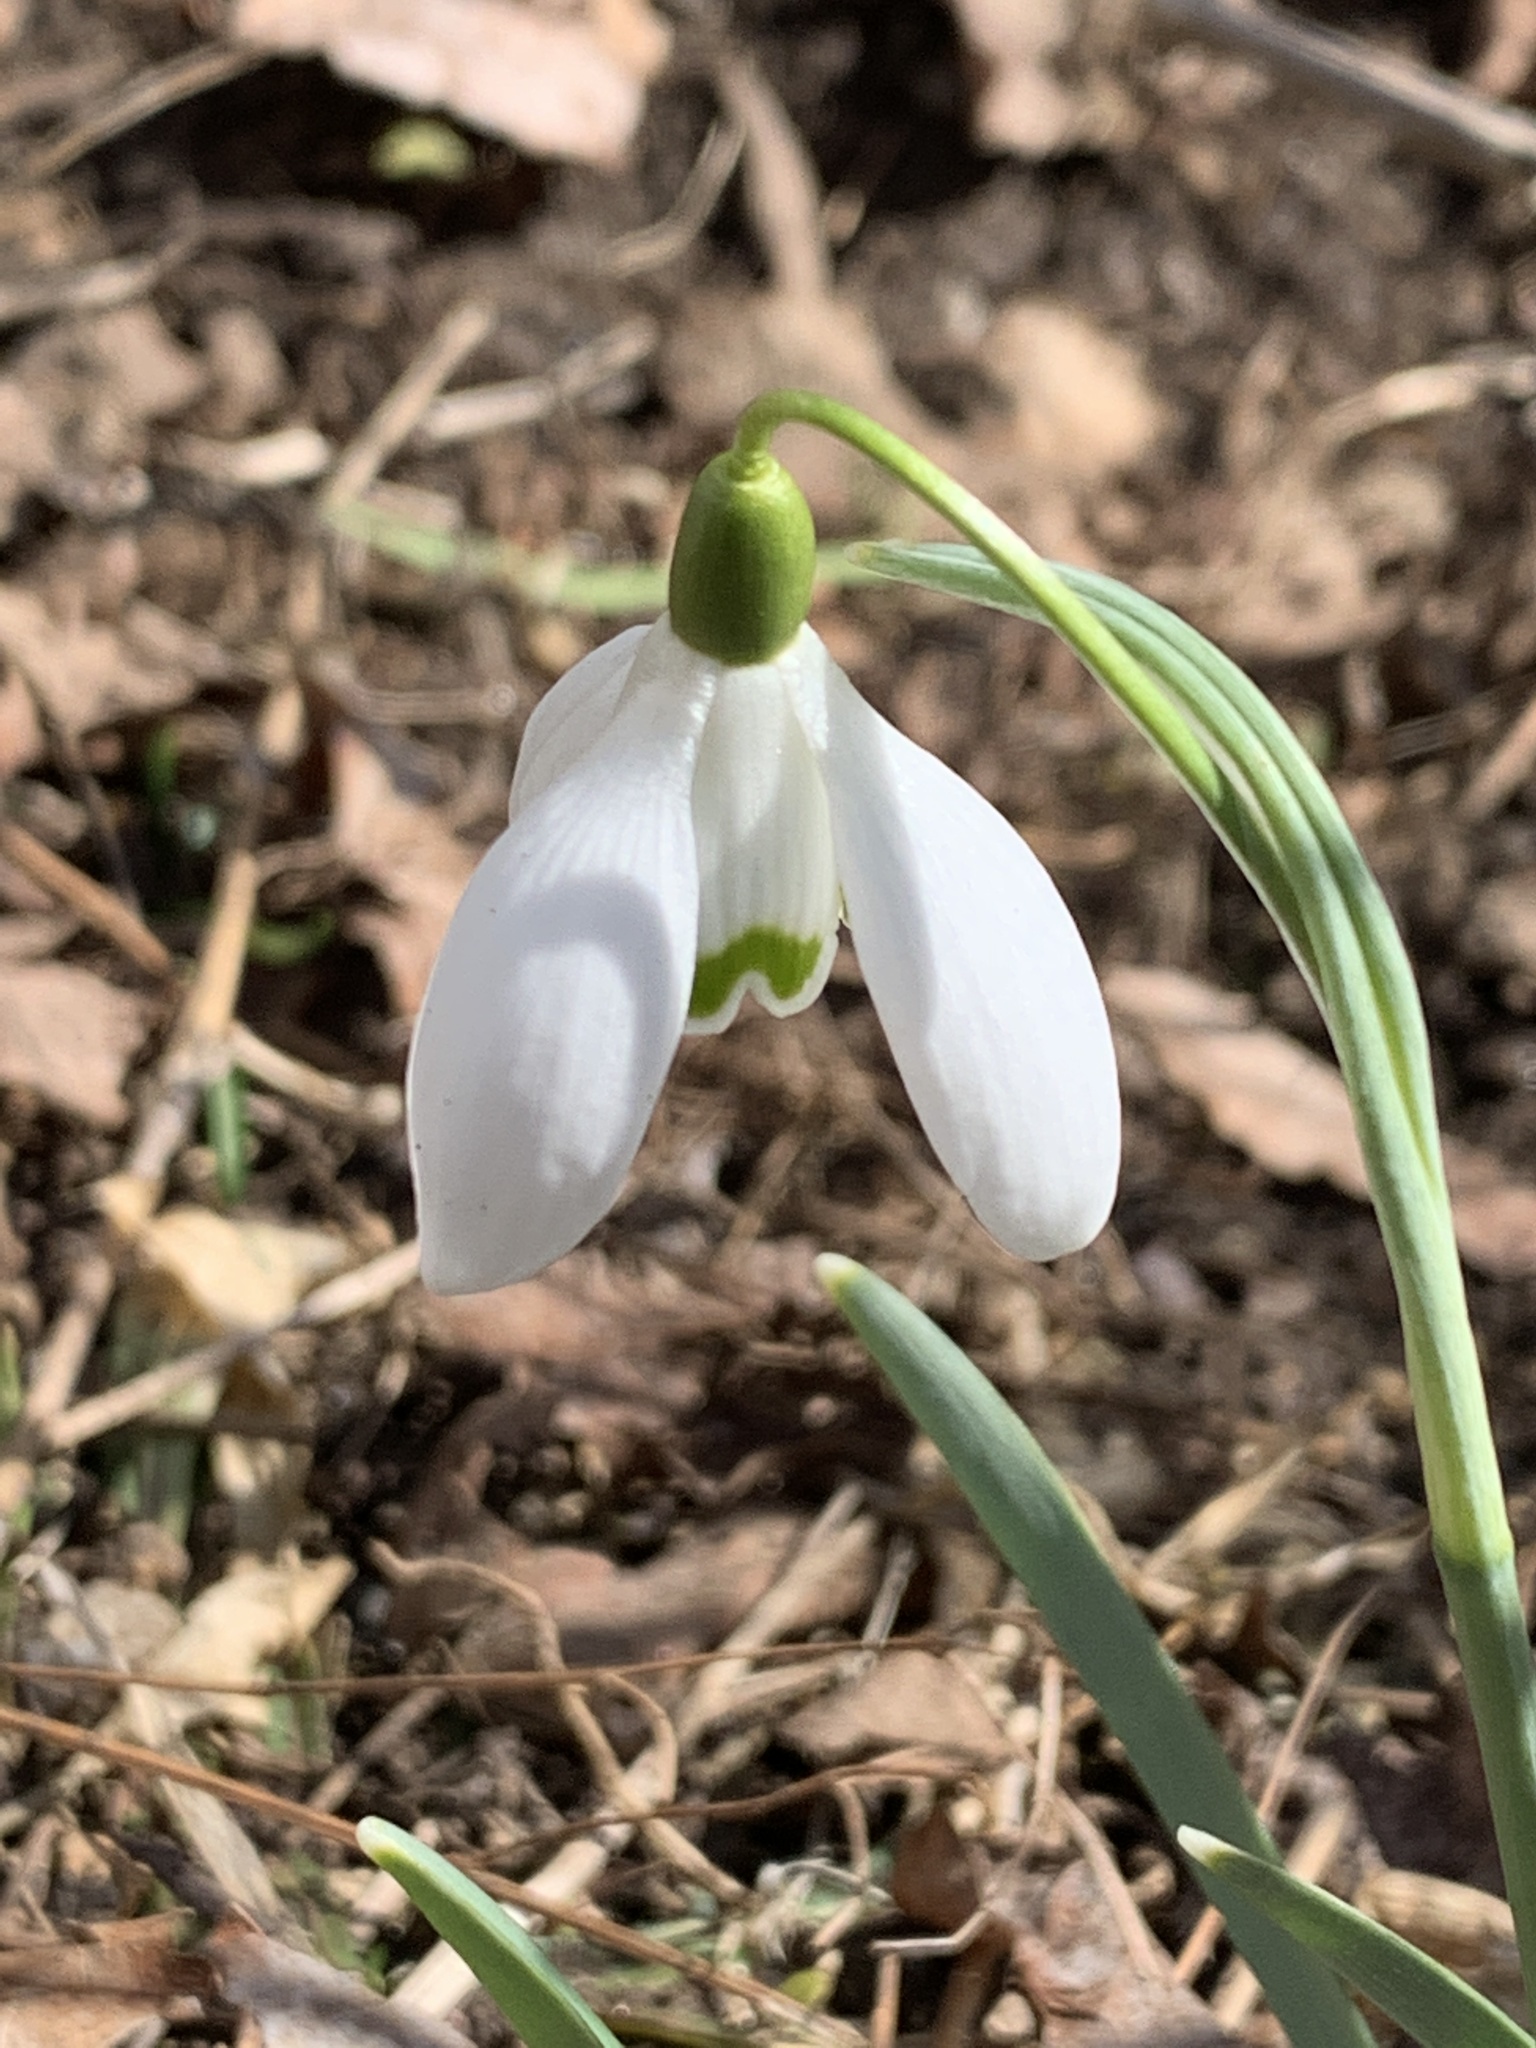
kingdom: Plantae
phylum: Tracheophyta
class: Liliopsida
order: Asparagales
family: Amaryllidaceae
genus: Galanthus
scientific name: Galanthus nivalis
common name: Snowdrop
